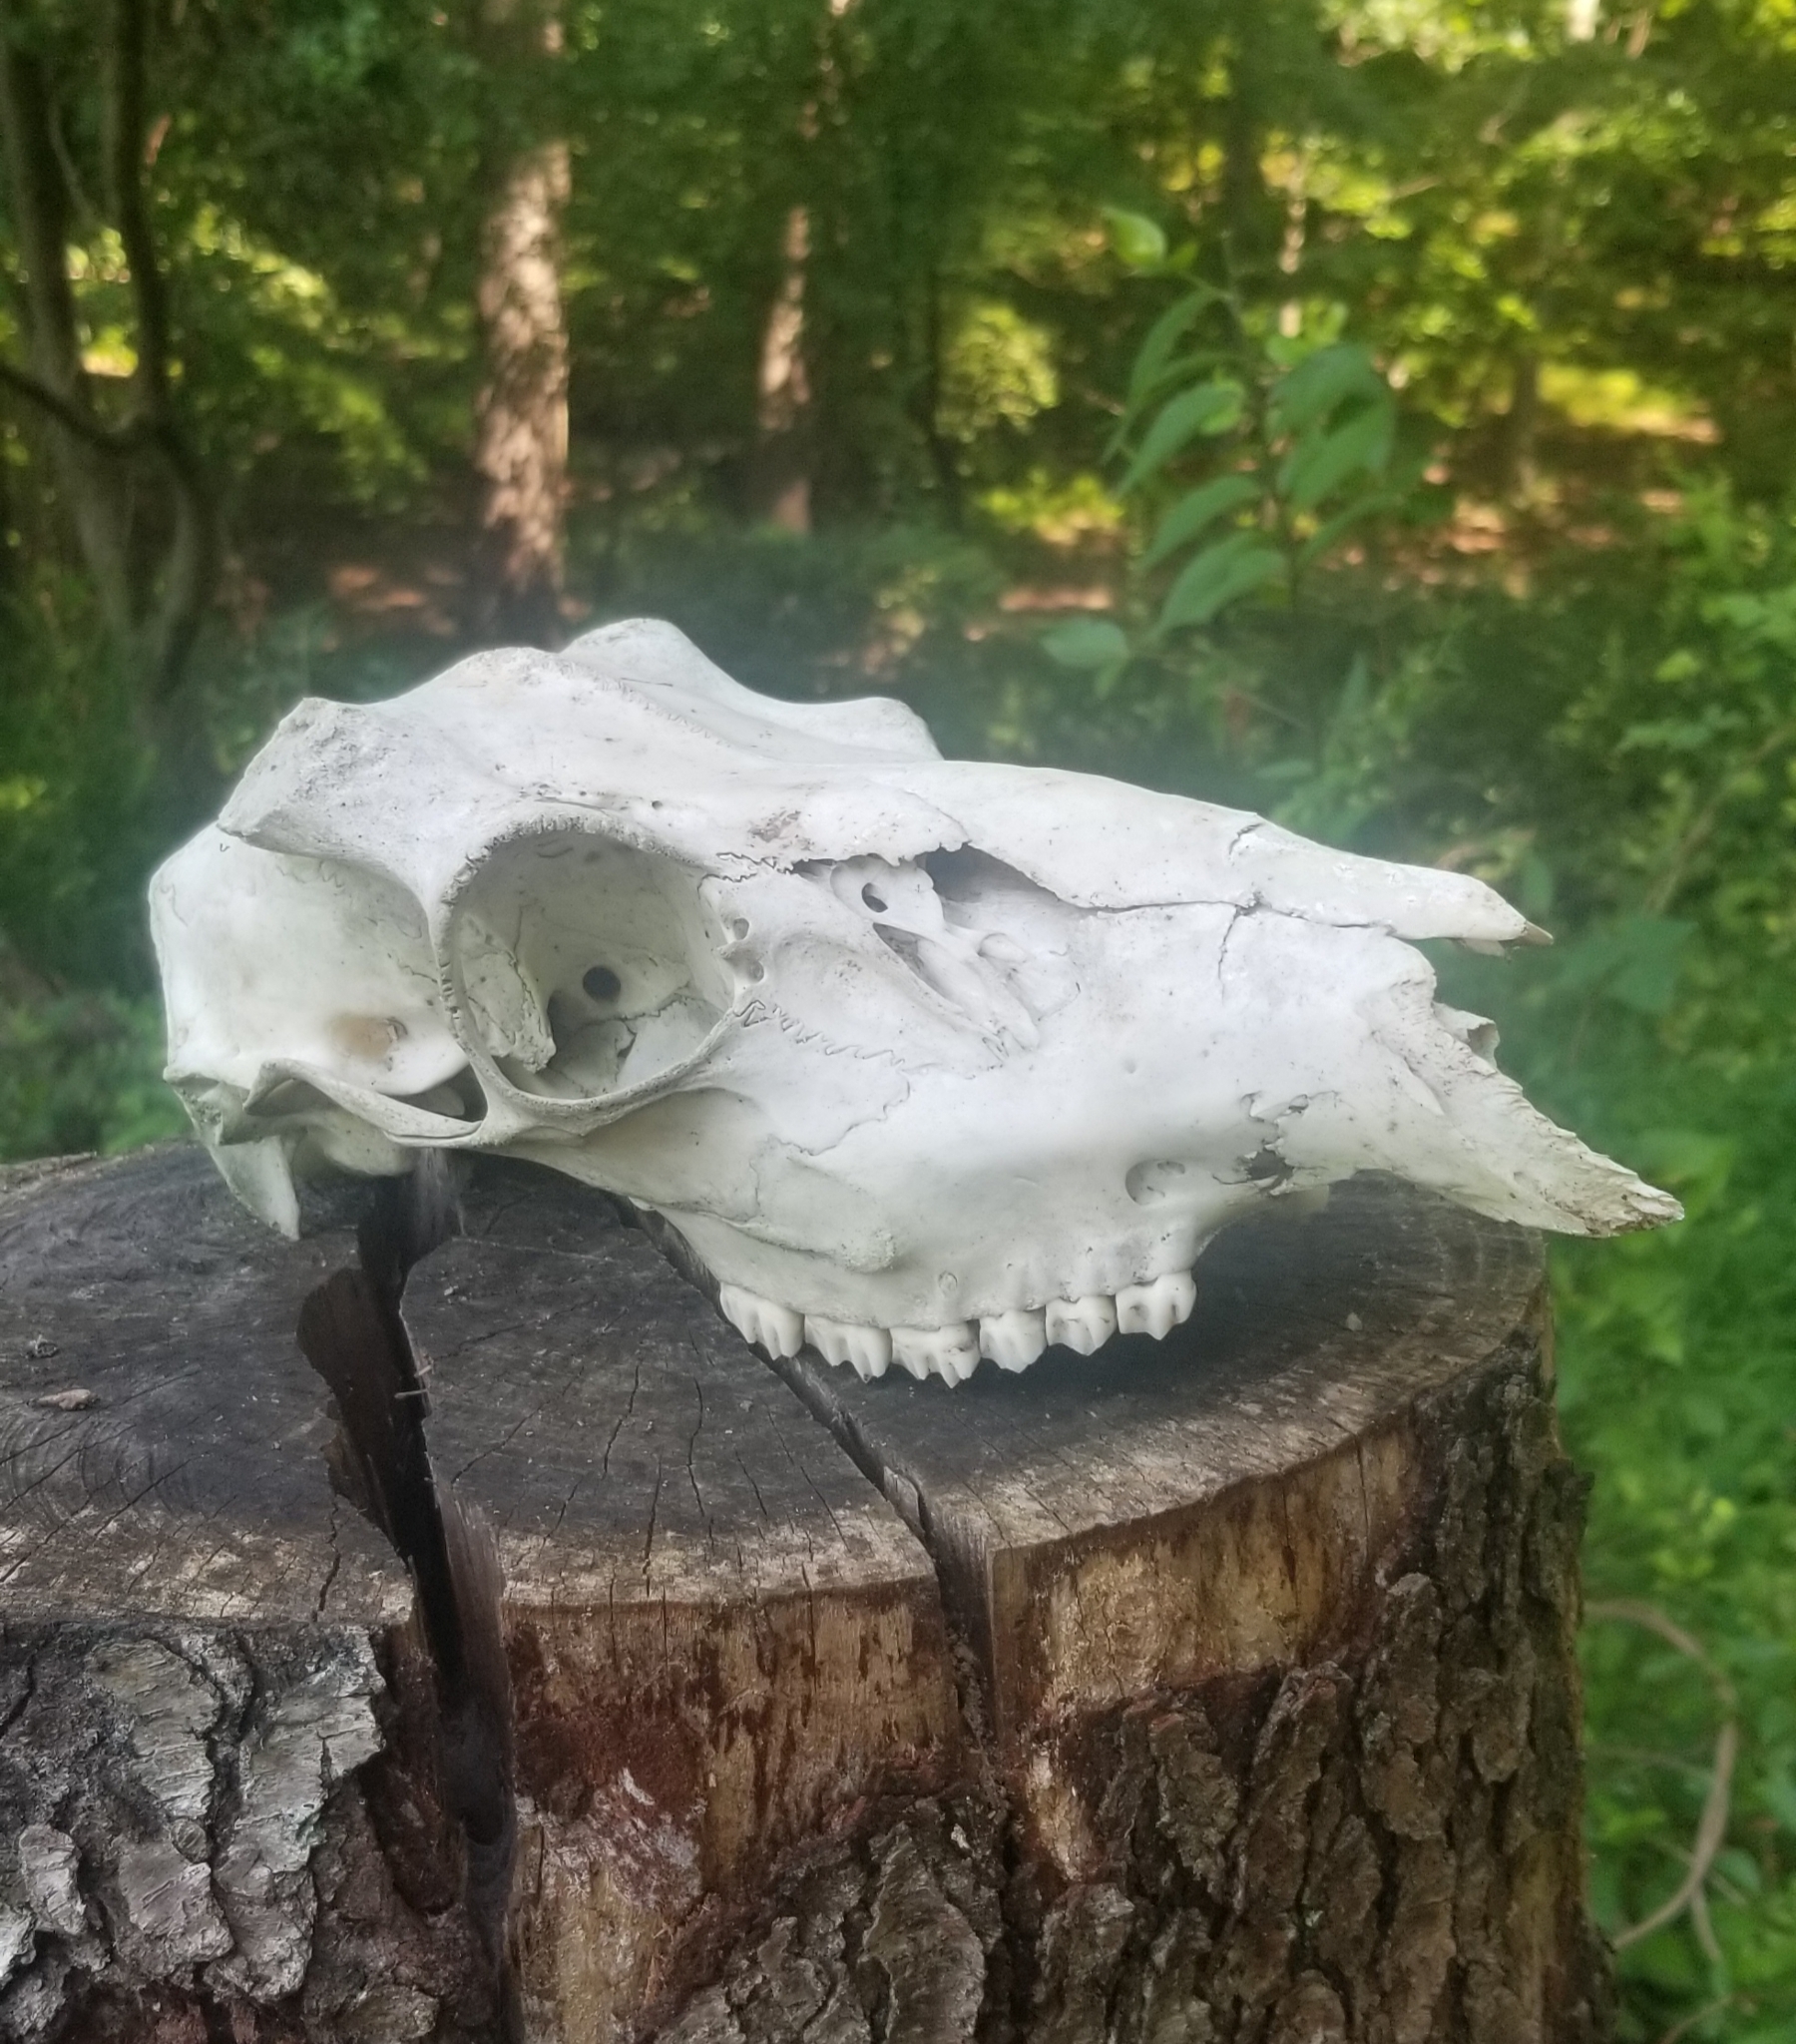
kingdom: Animalia
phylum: Chordata
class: Mammalia
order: Artiodactyla
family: Cervidae
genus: Odocoileus
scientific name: Odocoileus virginianus
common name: White-tailed deer
